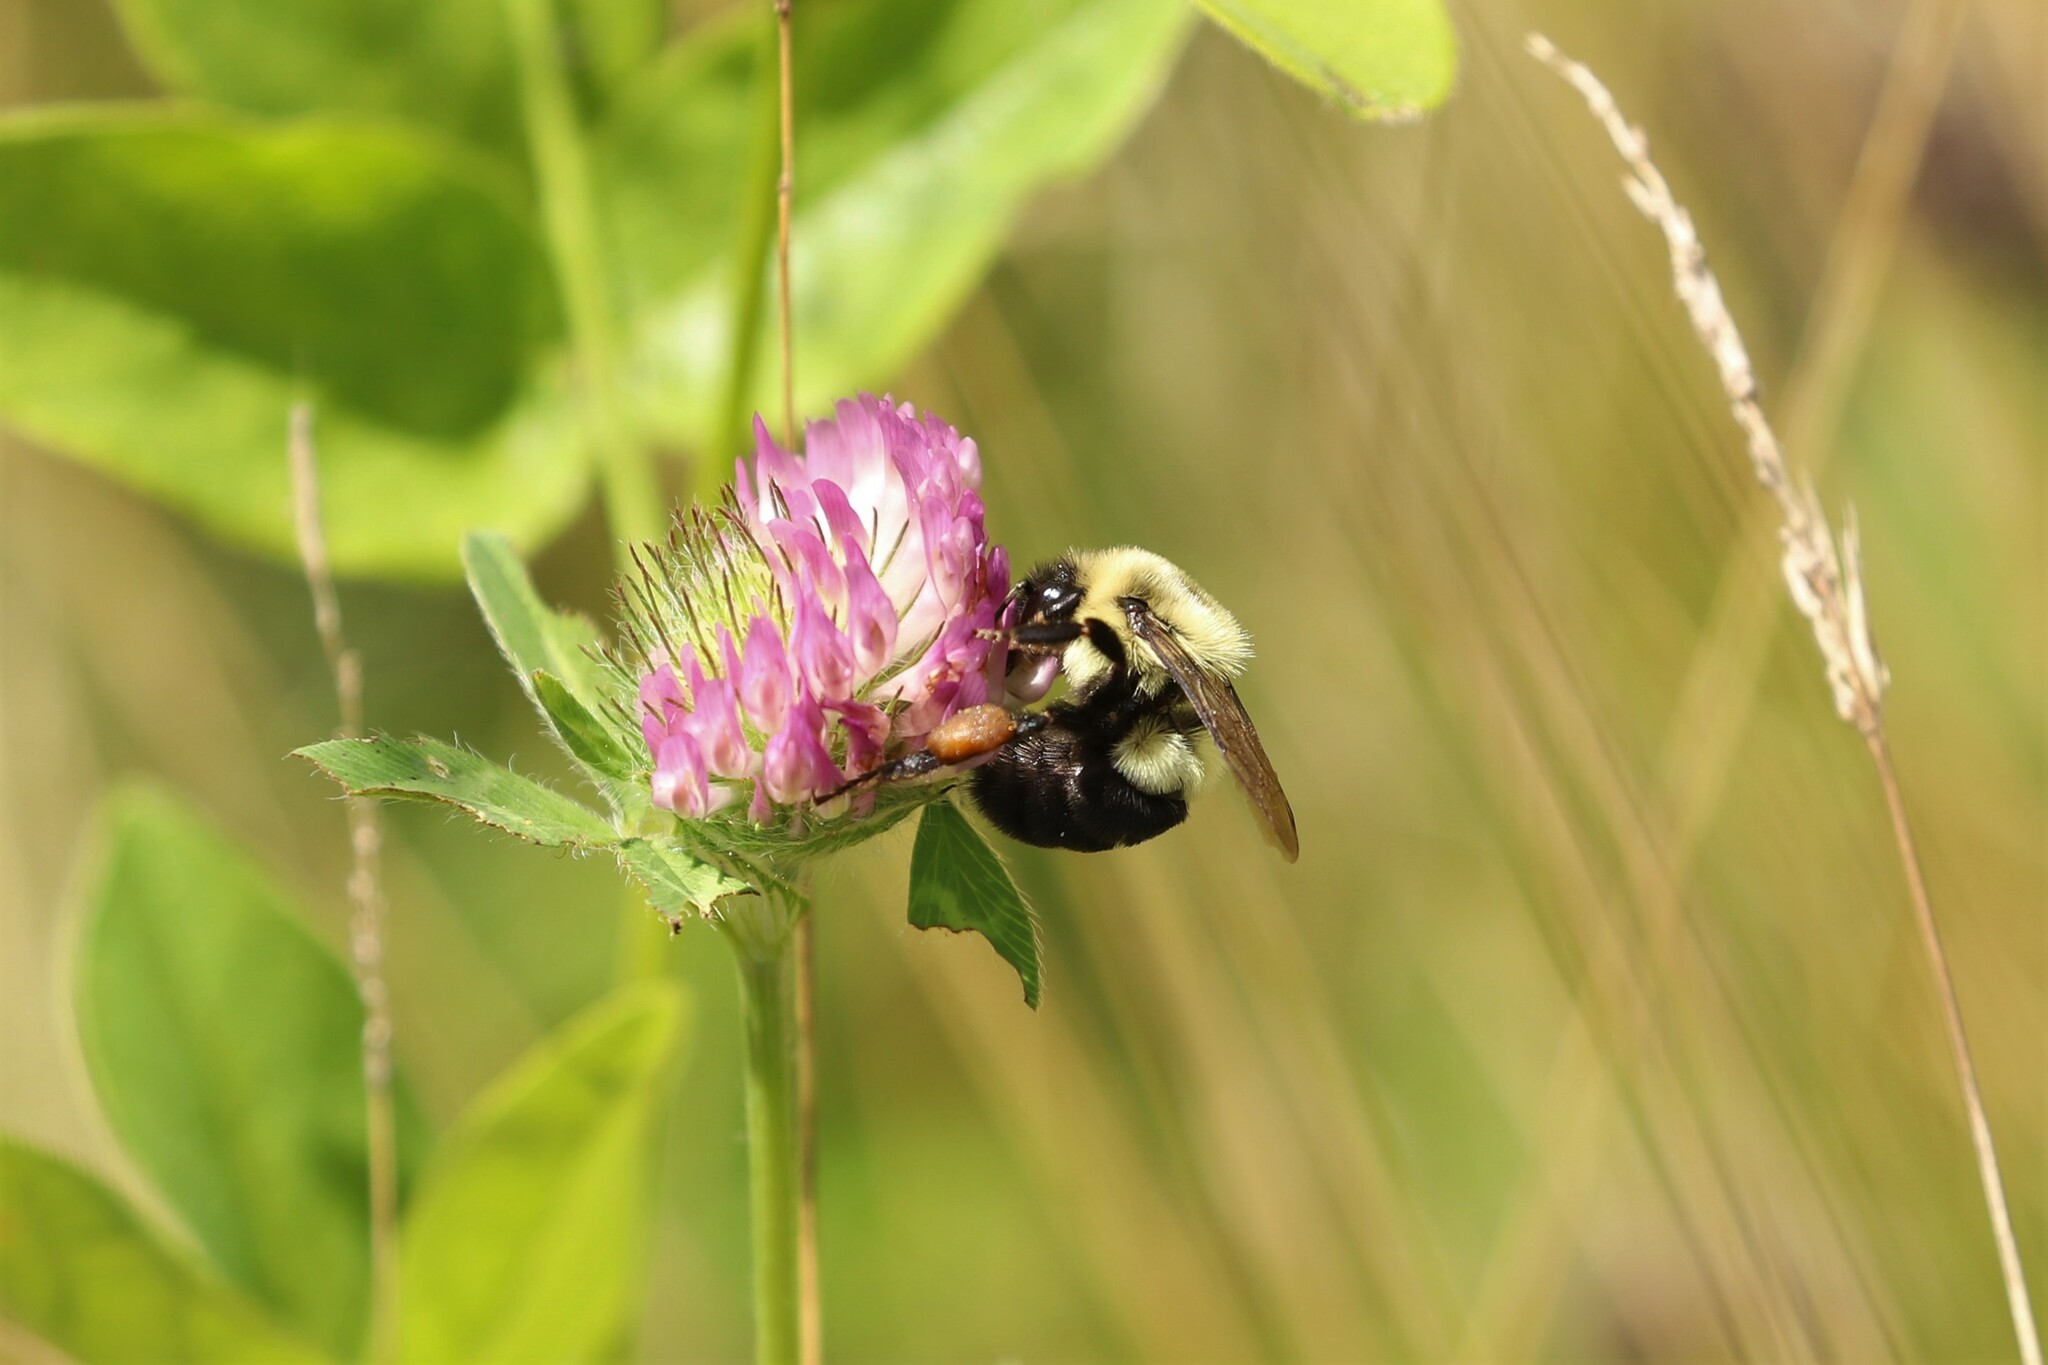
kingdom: Animalia
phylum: Arthropoda
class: Insecta
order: Hymenoptera
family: Apidae
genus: Bombus
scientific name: Bombus impatiens
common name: Common eastern bumble bee
